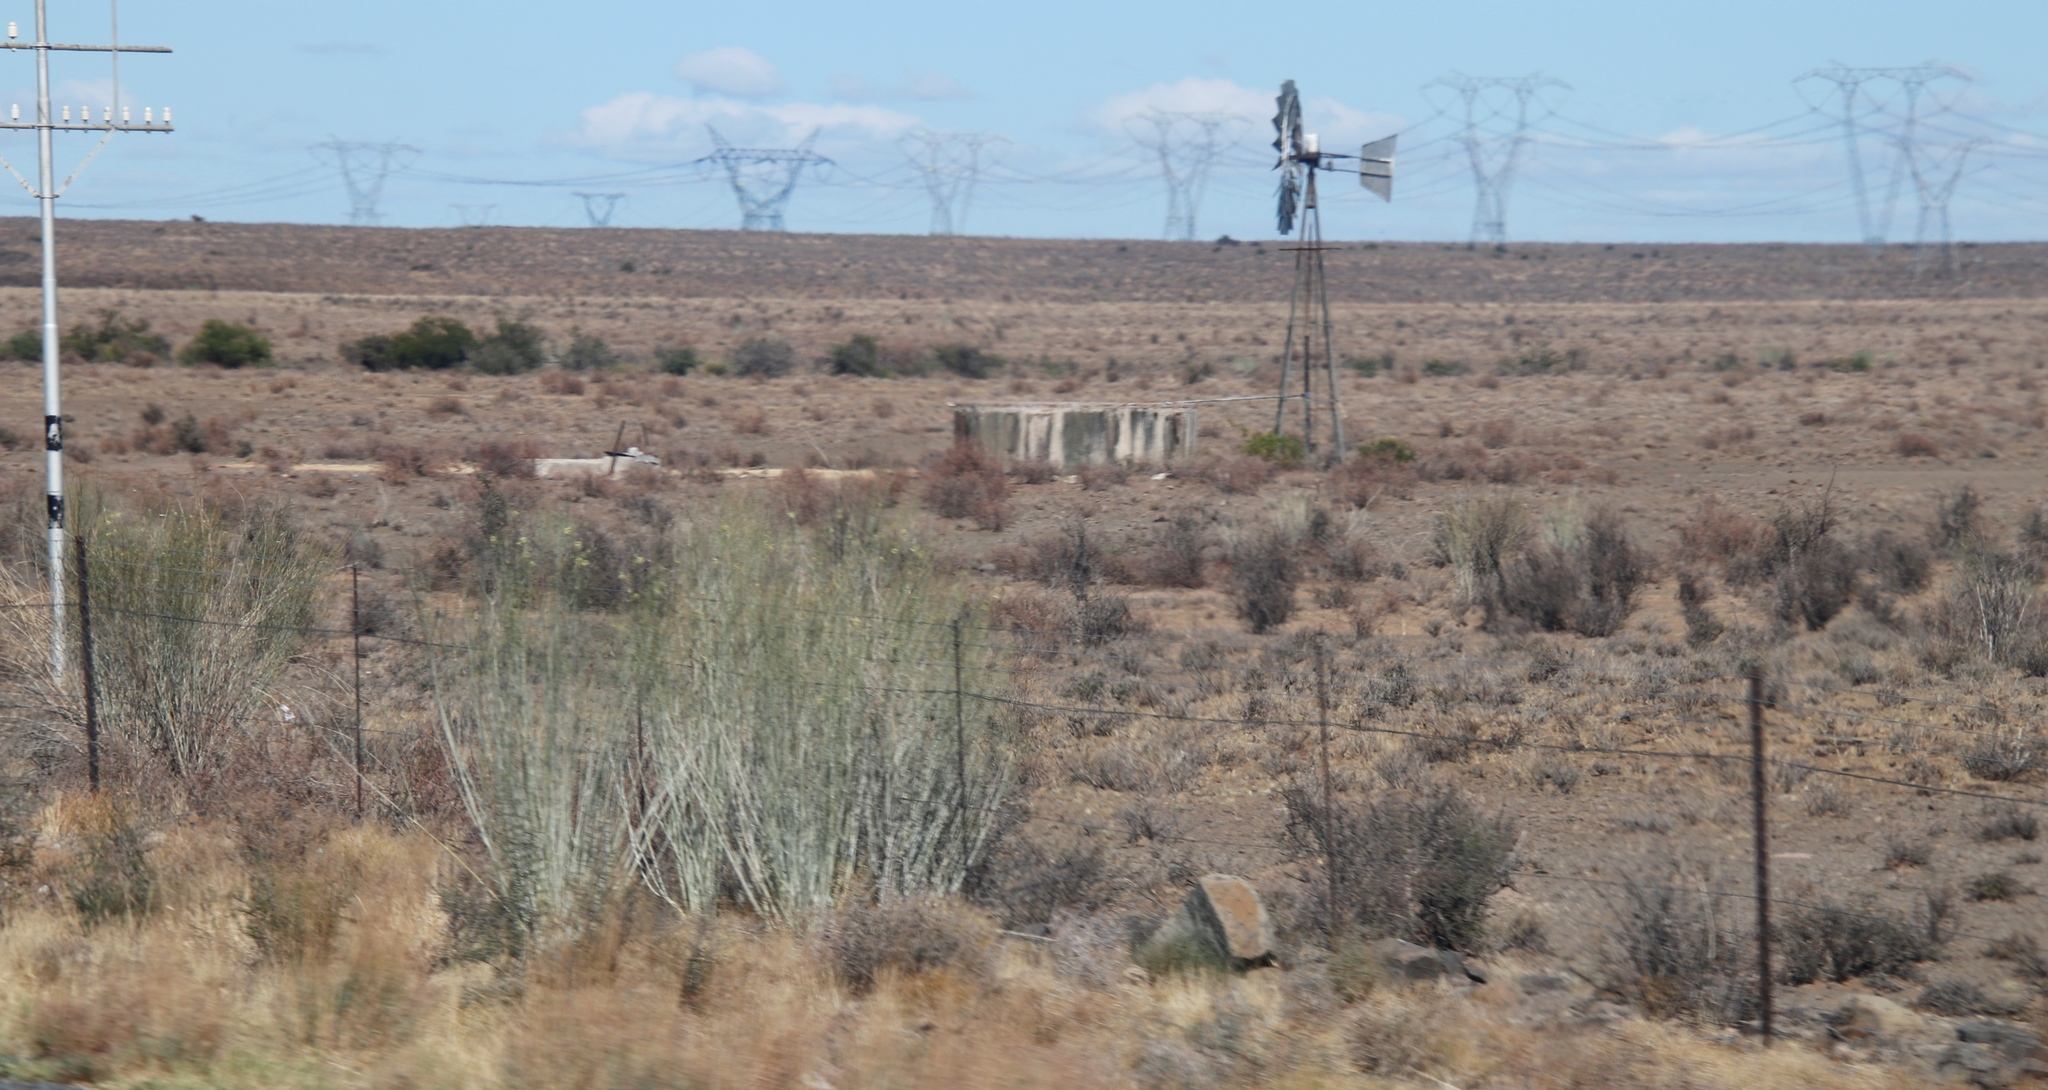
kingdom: Plantae
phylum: Tracheophyta
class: Magnoliopsida
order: Gentianales
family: Apocynaceae
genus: Gomphocarpus
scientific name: Gomphocarpus filiformis
